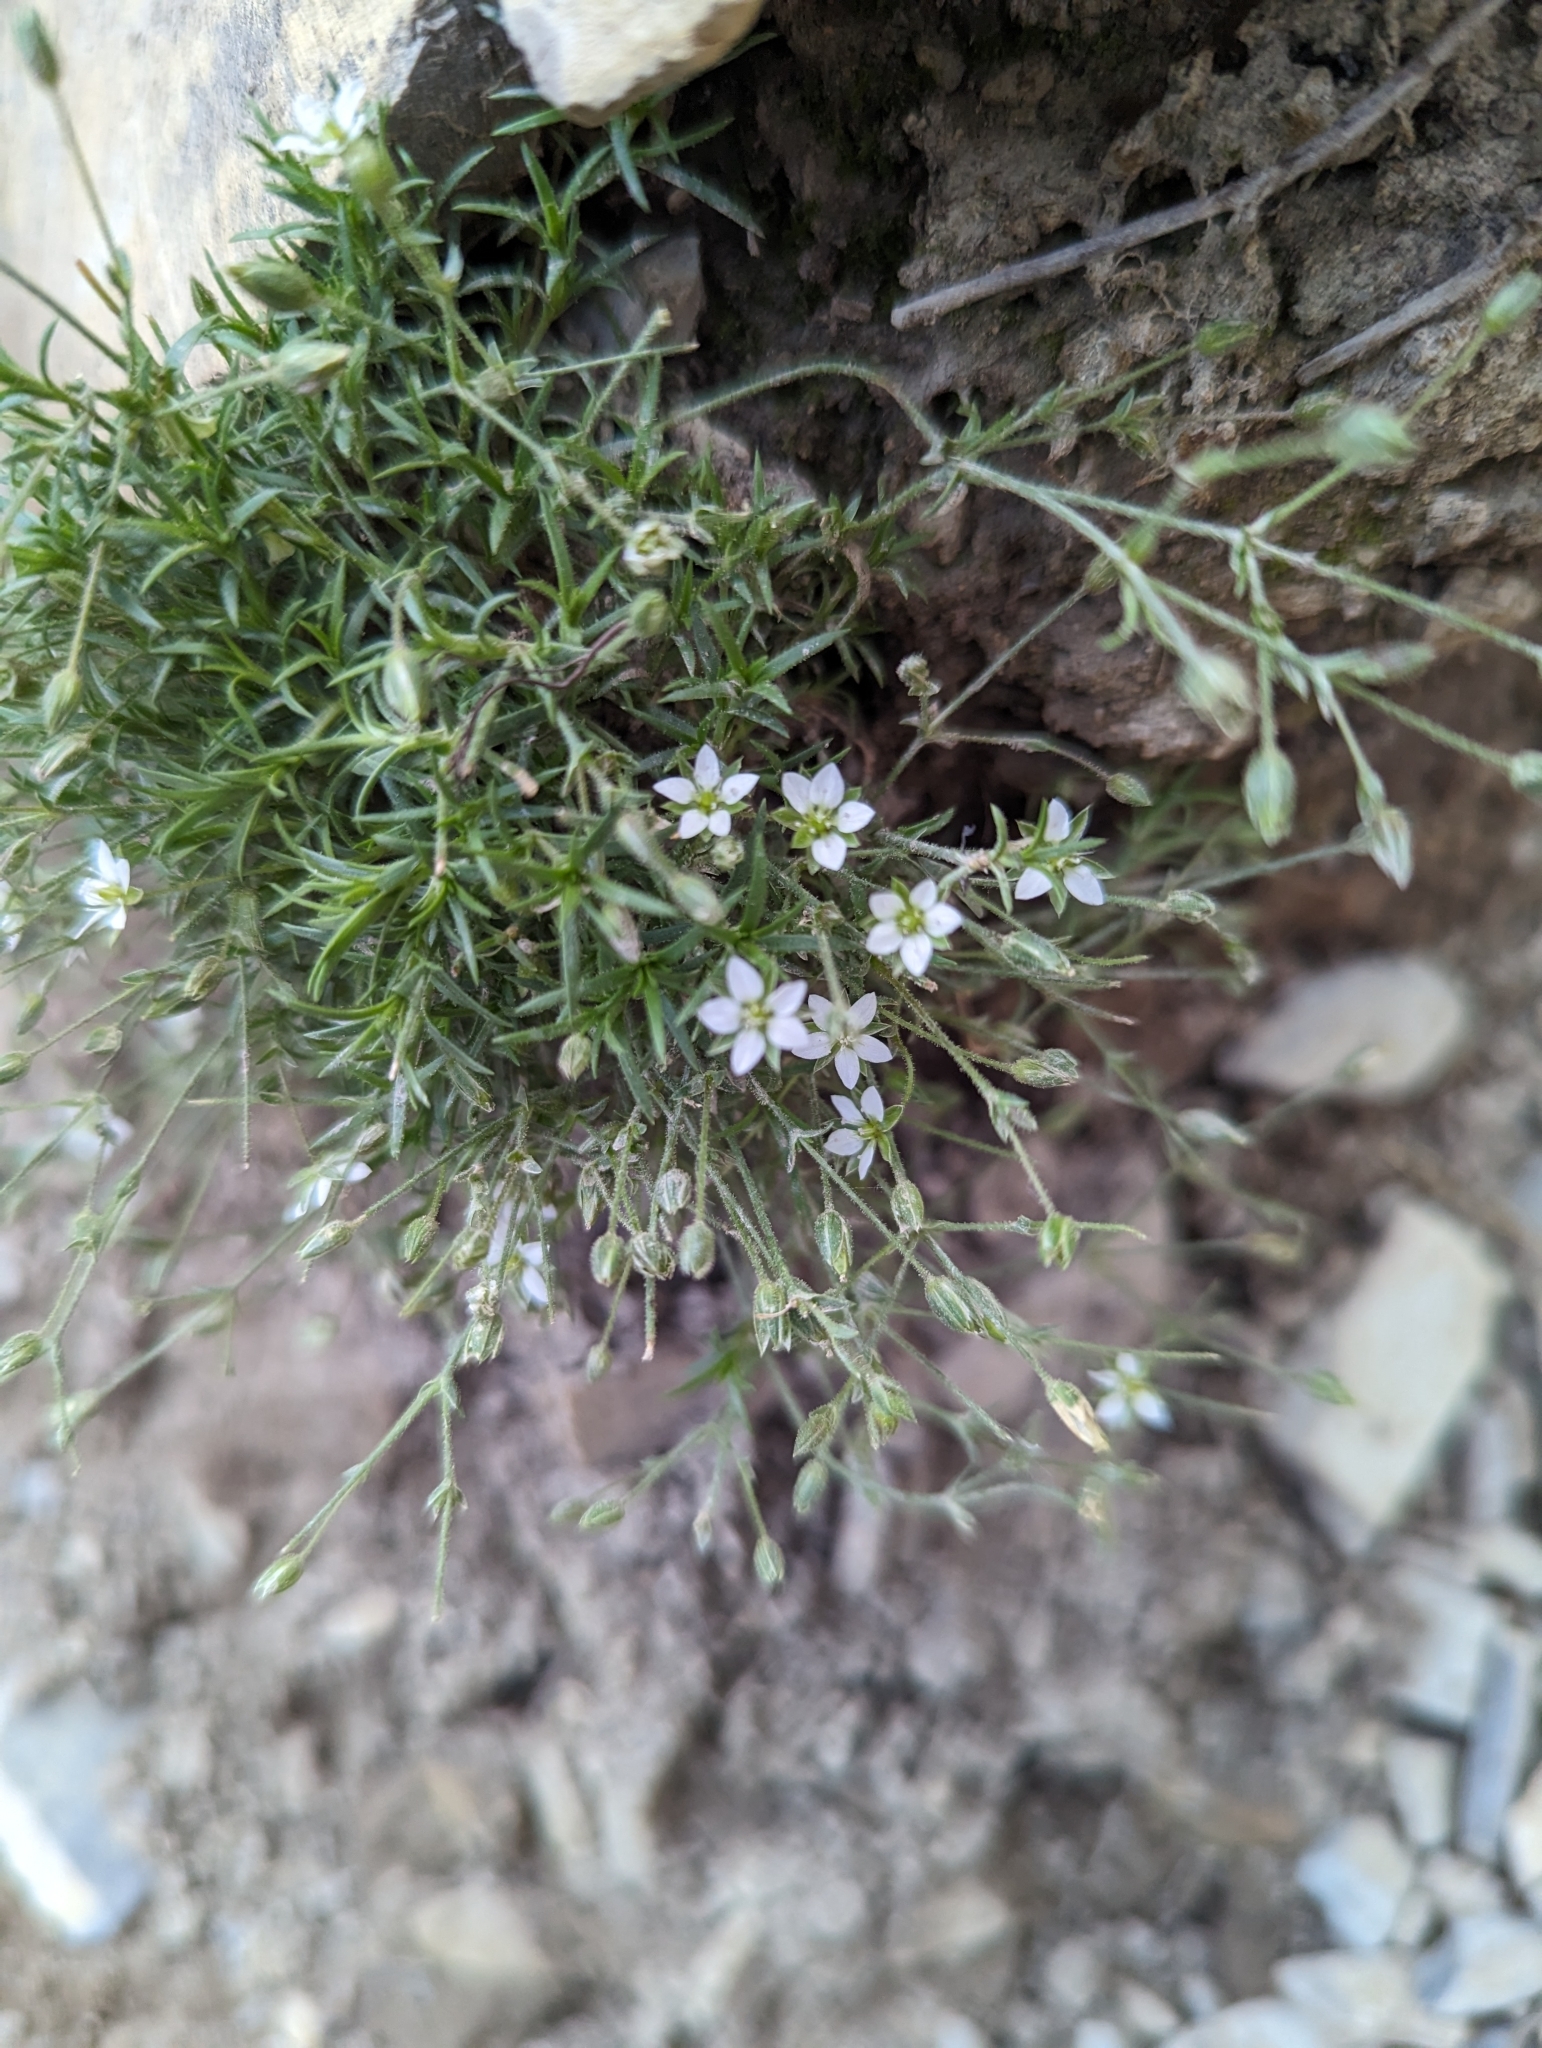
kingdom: Plantae
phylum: Tracheophyta
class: Magnoliopsida
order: Caryophyllales
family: Caryophyllaceae
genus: Sabulina
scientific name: Sabulina rubella
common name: Beautiful sandwort
